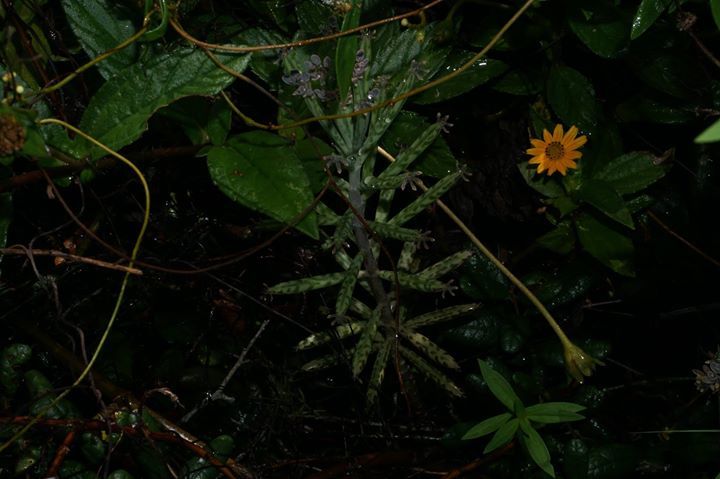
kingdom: Plantae
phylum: Tracheophyta
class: Magnoliopsida
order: Saxifragales
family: Crassulaceae
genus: Kalanchoe
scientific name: Kalanchoe delagoensis
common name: Chandelier plant
